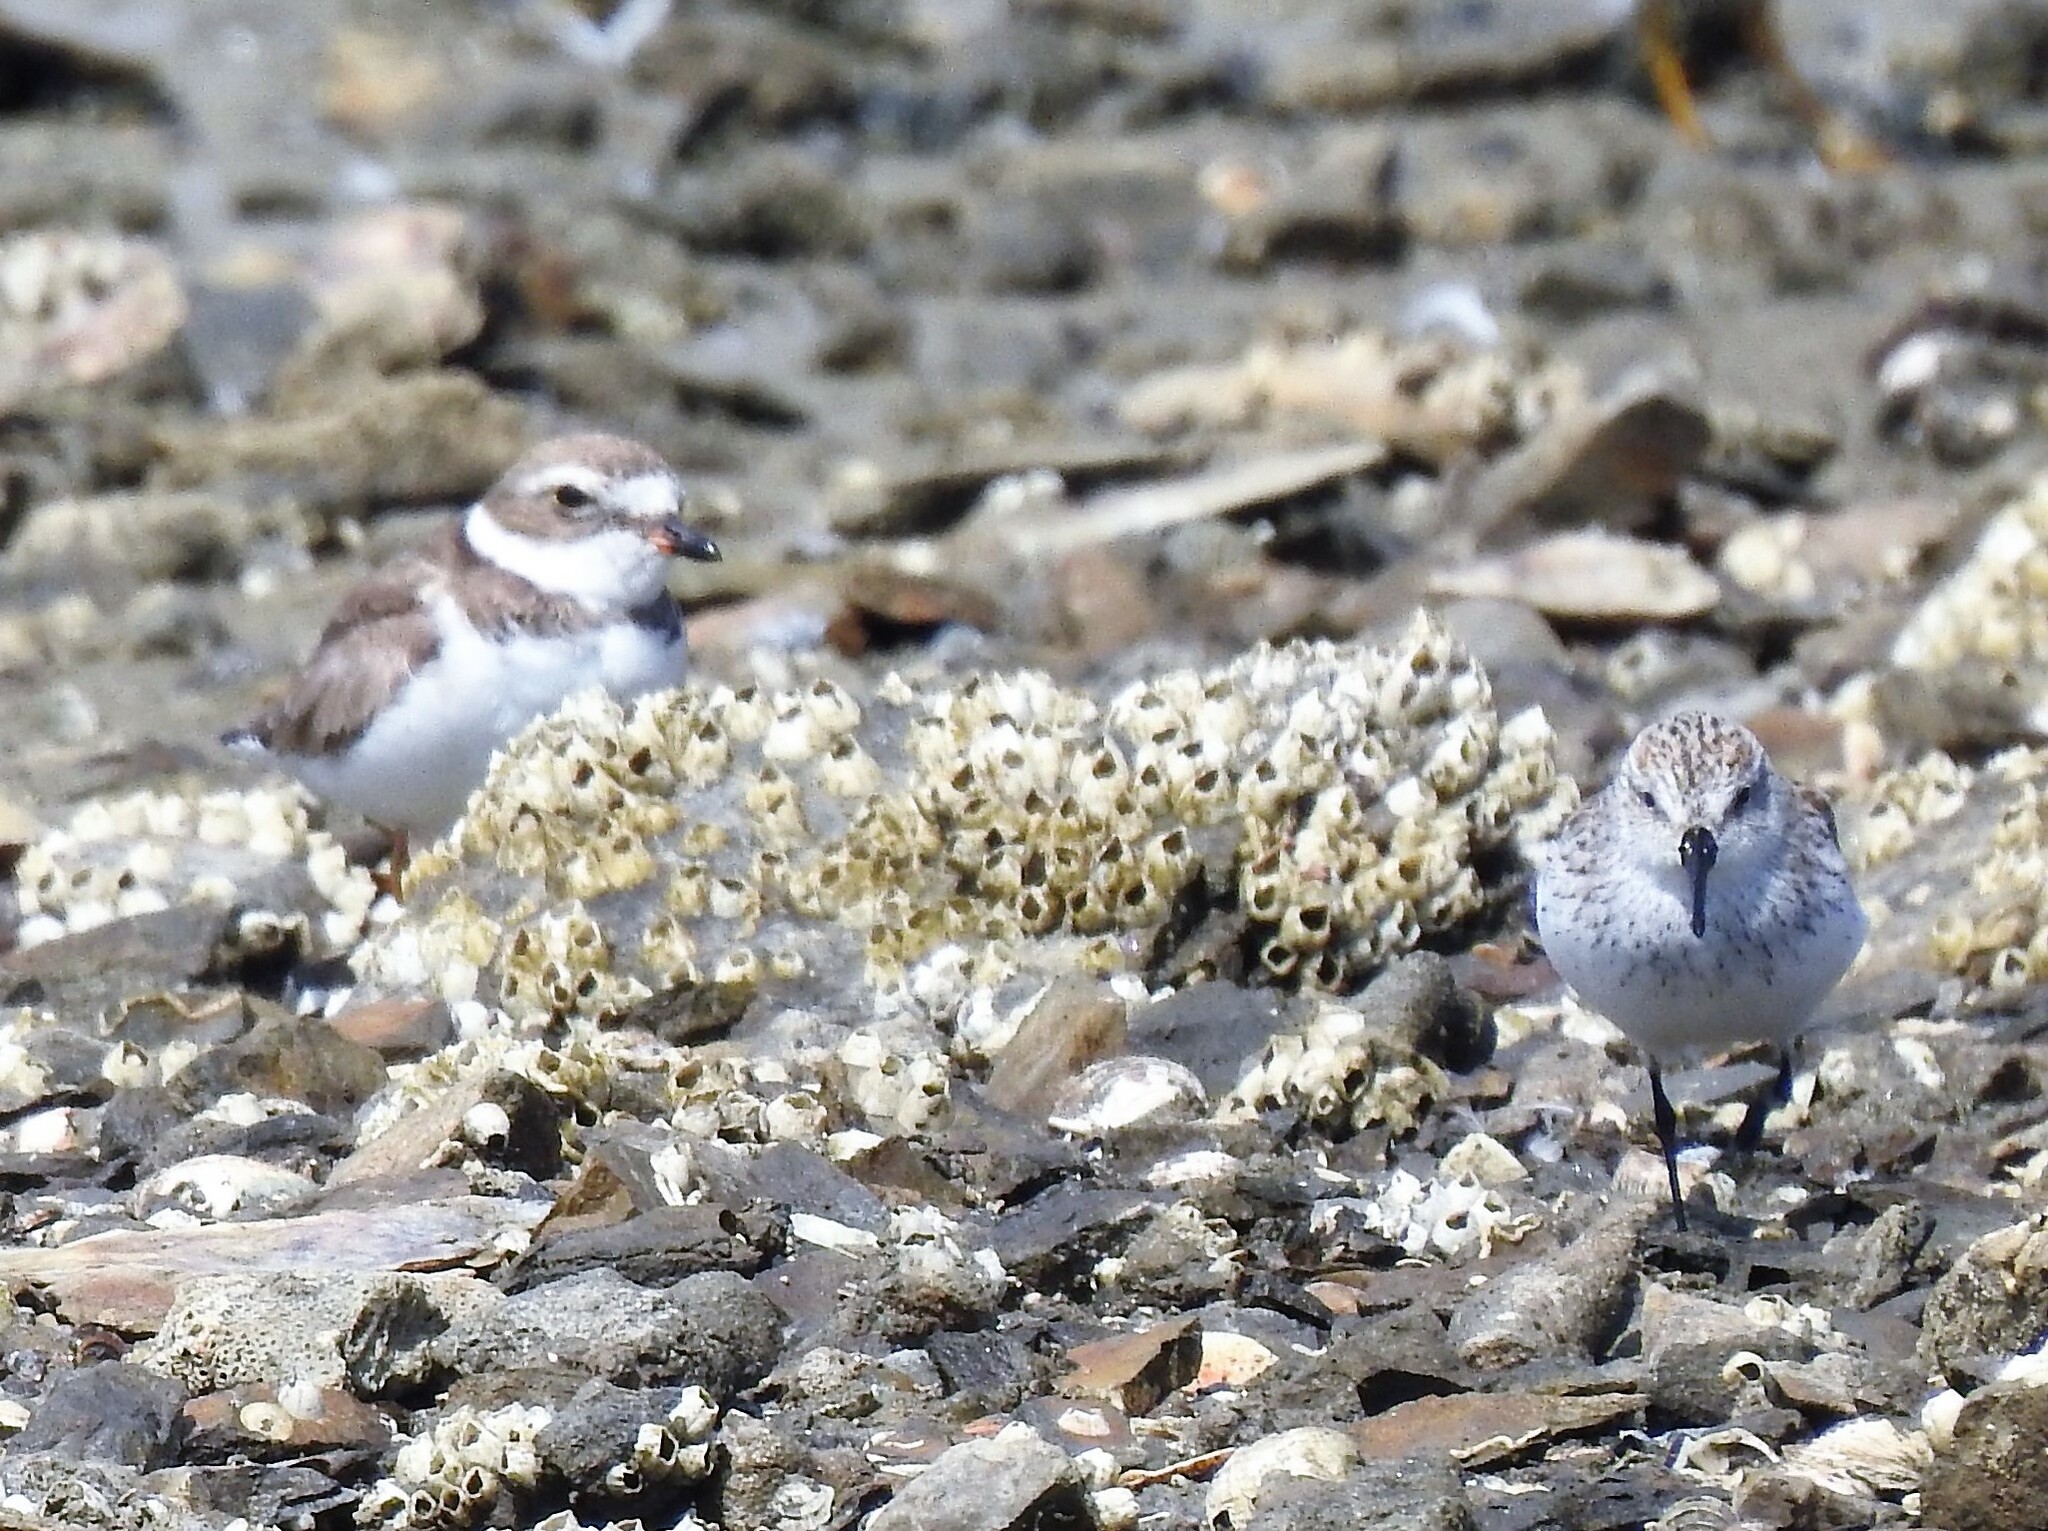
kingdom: Animalia
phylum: Chordata
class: Aves
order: Charadriiformes
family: Scolopacidae
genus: Calidris
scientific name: Calidris mauri
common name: Western sandpiper
